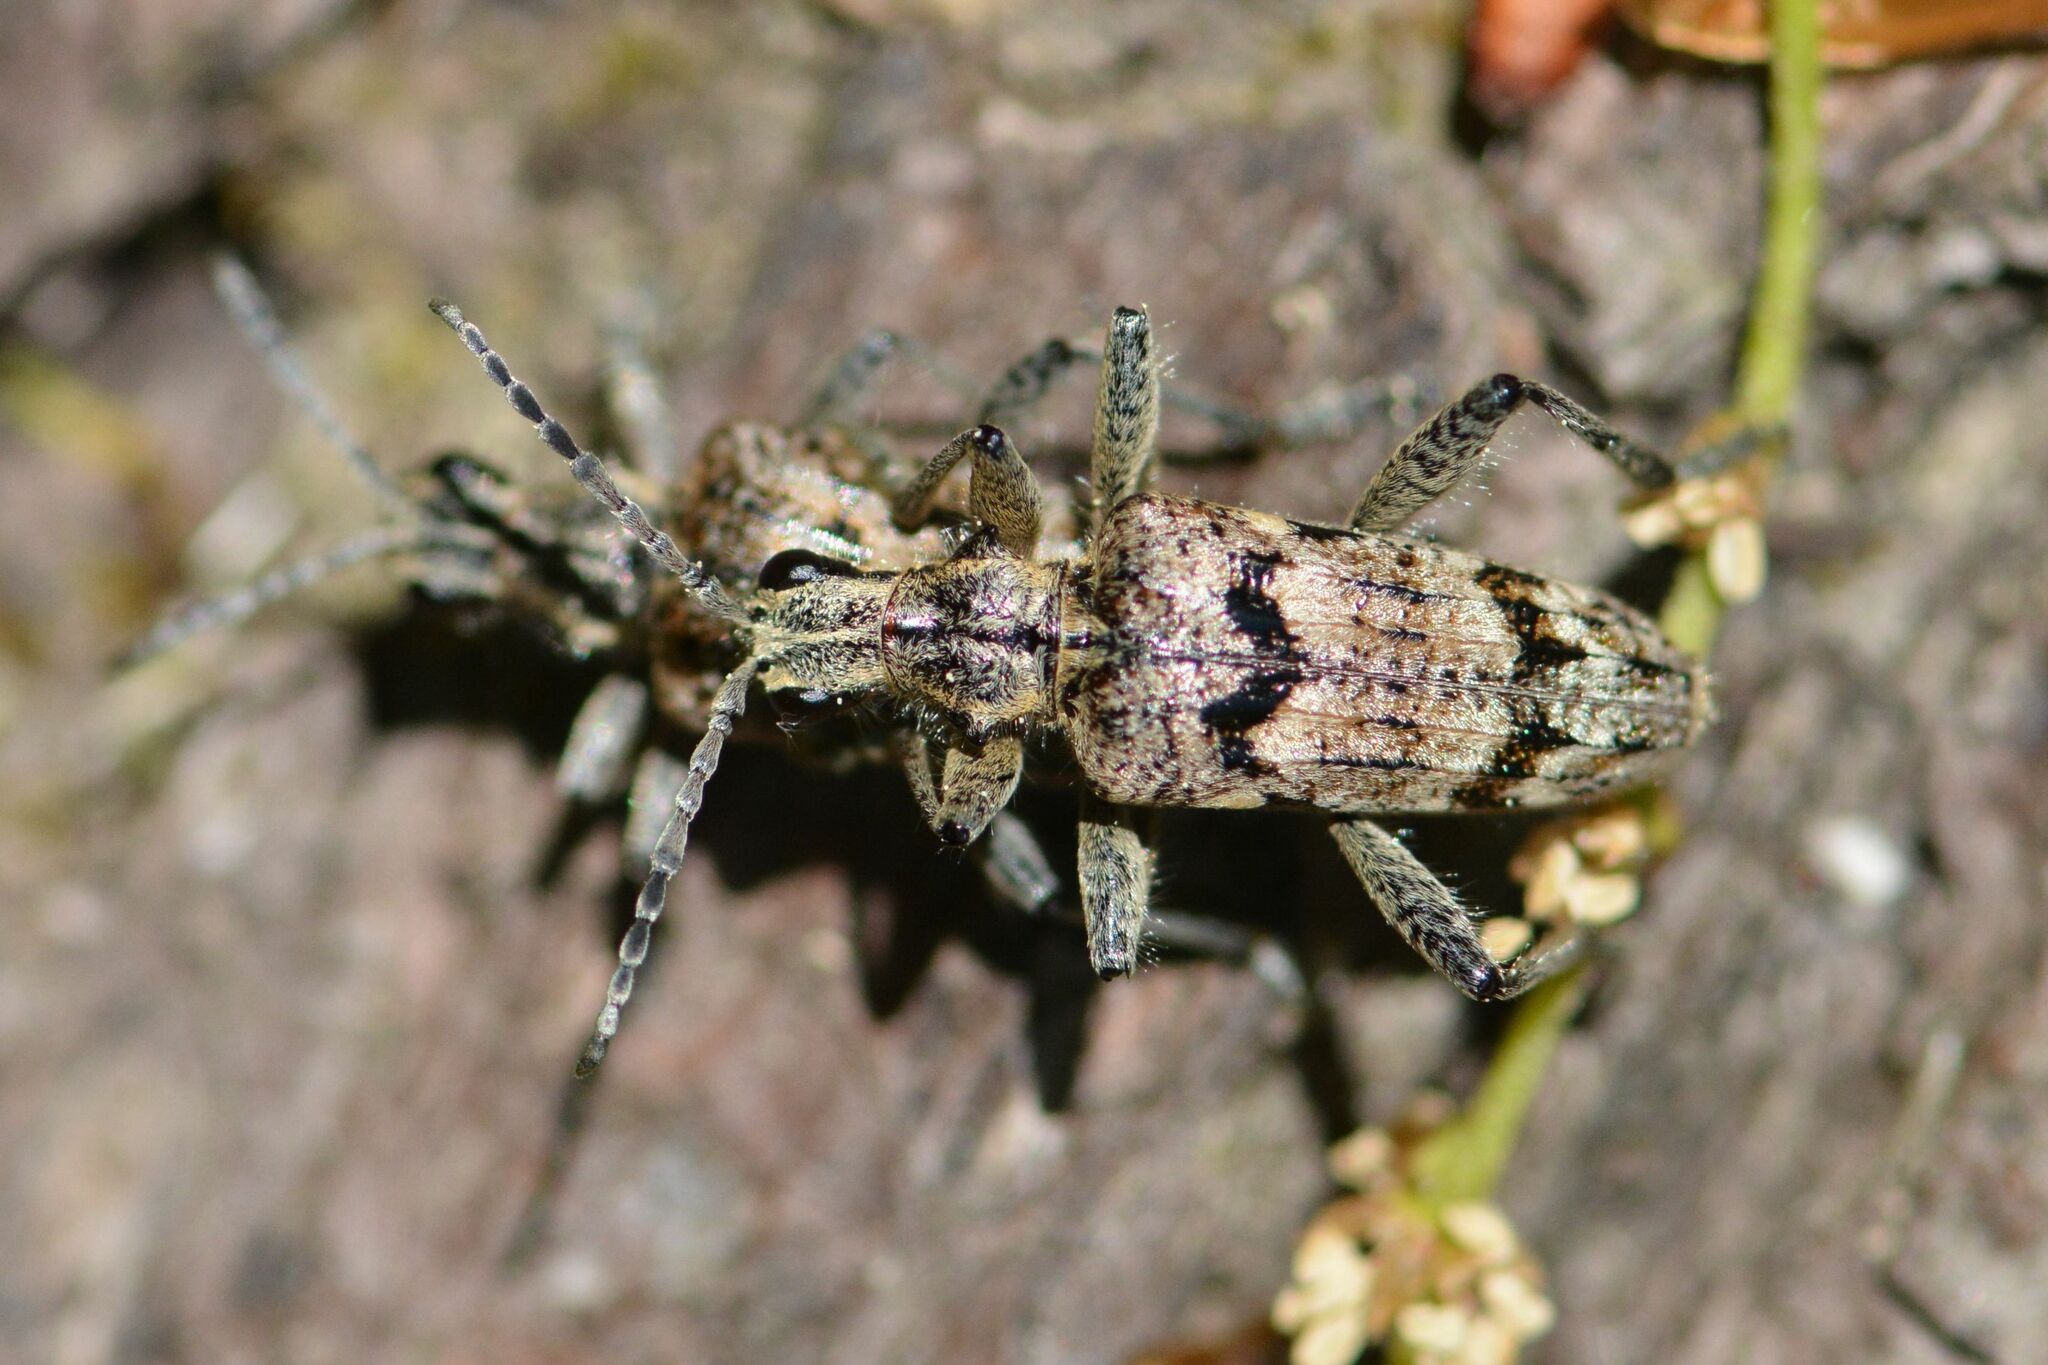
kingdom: Animalia
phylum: Arthropoda
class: Insecta
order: Coleoptera
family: Cerambycidae
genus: Rhagium
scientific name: Rhagium inquisitor
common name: Ribbed pine borer
